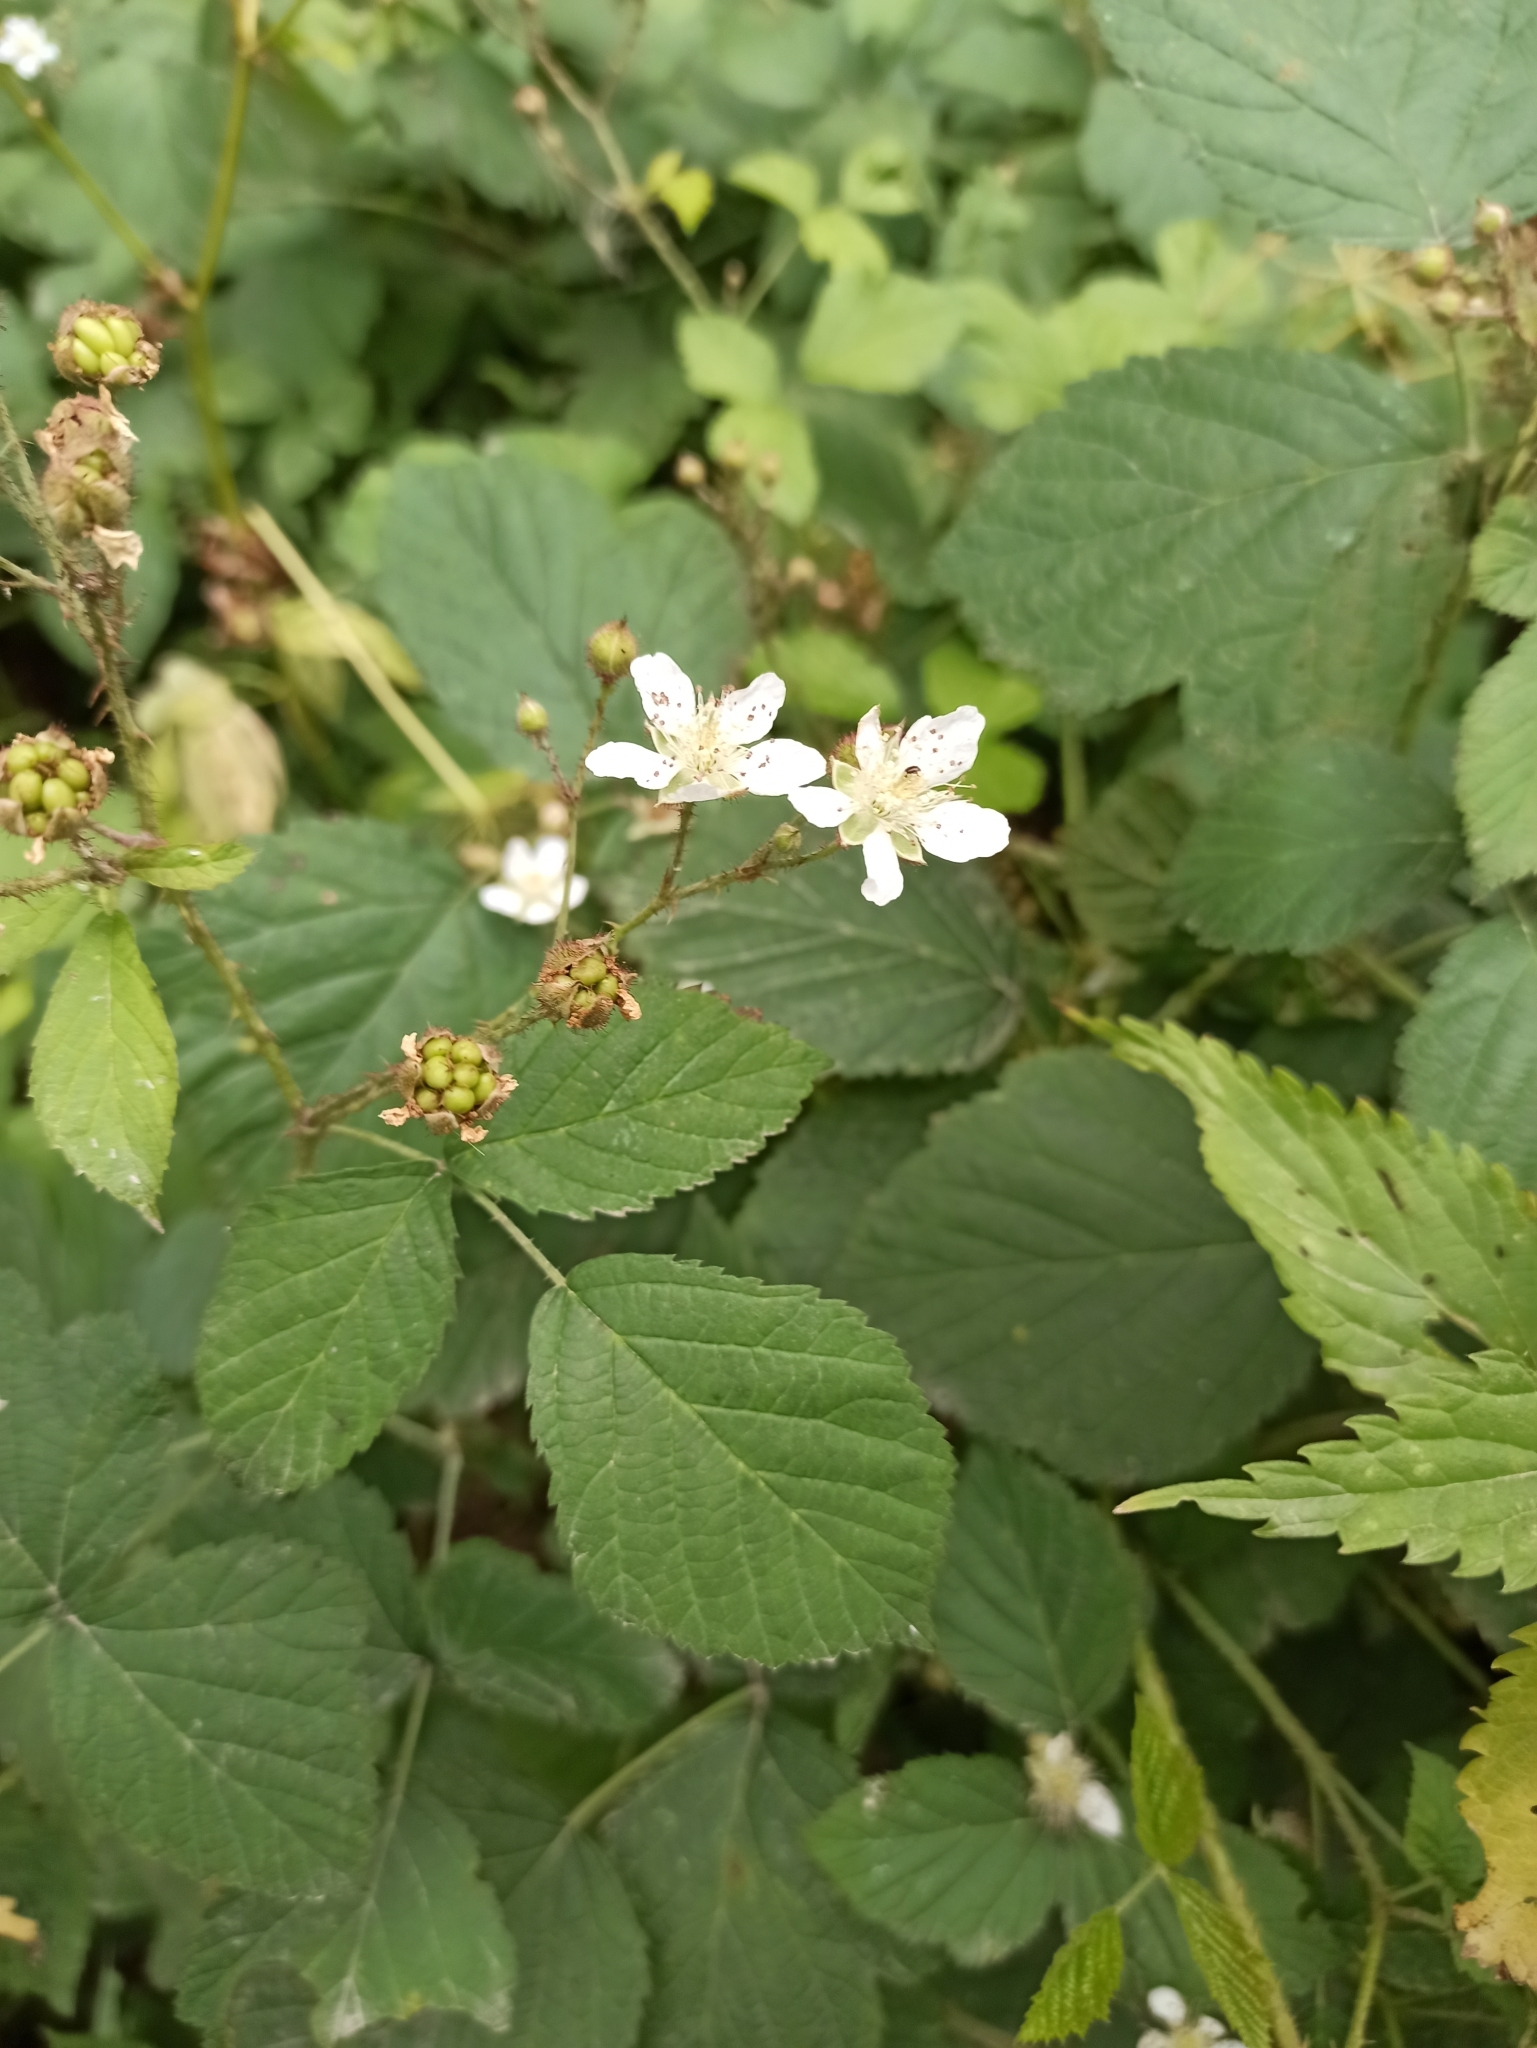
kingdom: Plantae
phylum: Tracheophyta
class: Magnoliopsida
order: Rosales
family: Rosaceae
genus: Rubus
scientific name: Rubus caesius
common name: Dewberry
